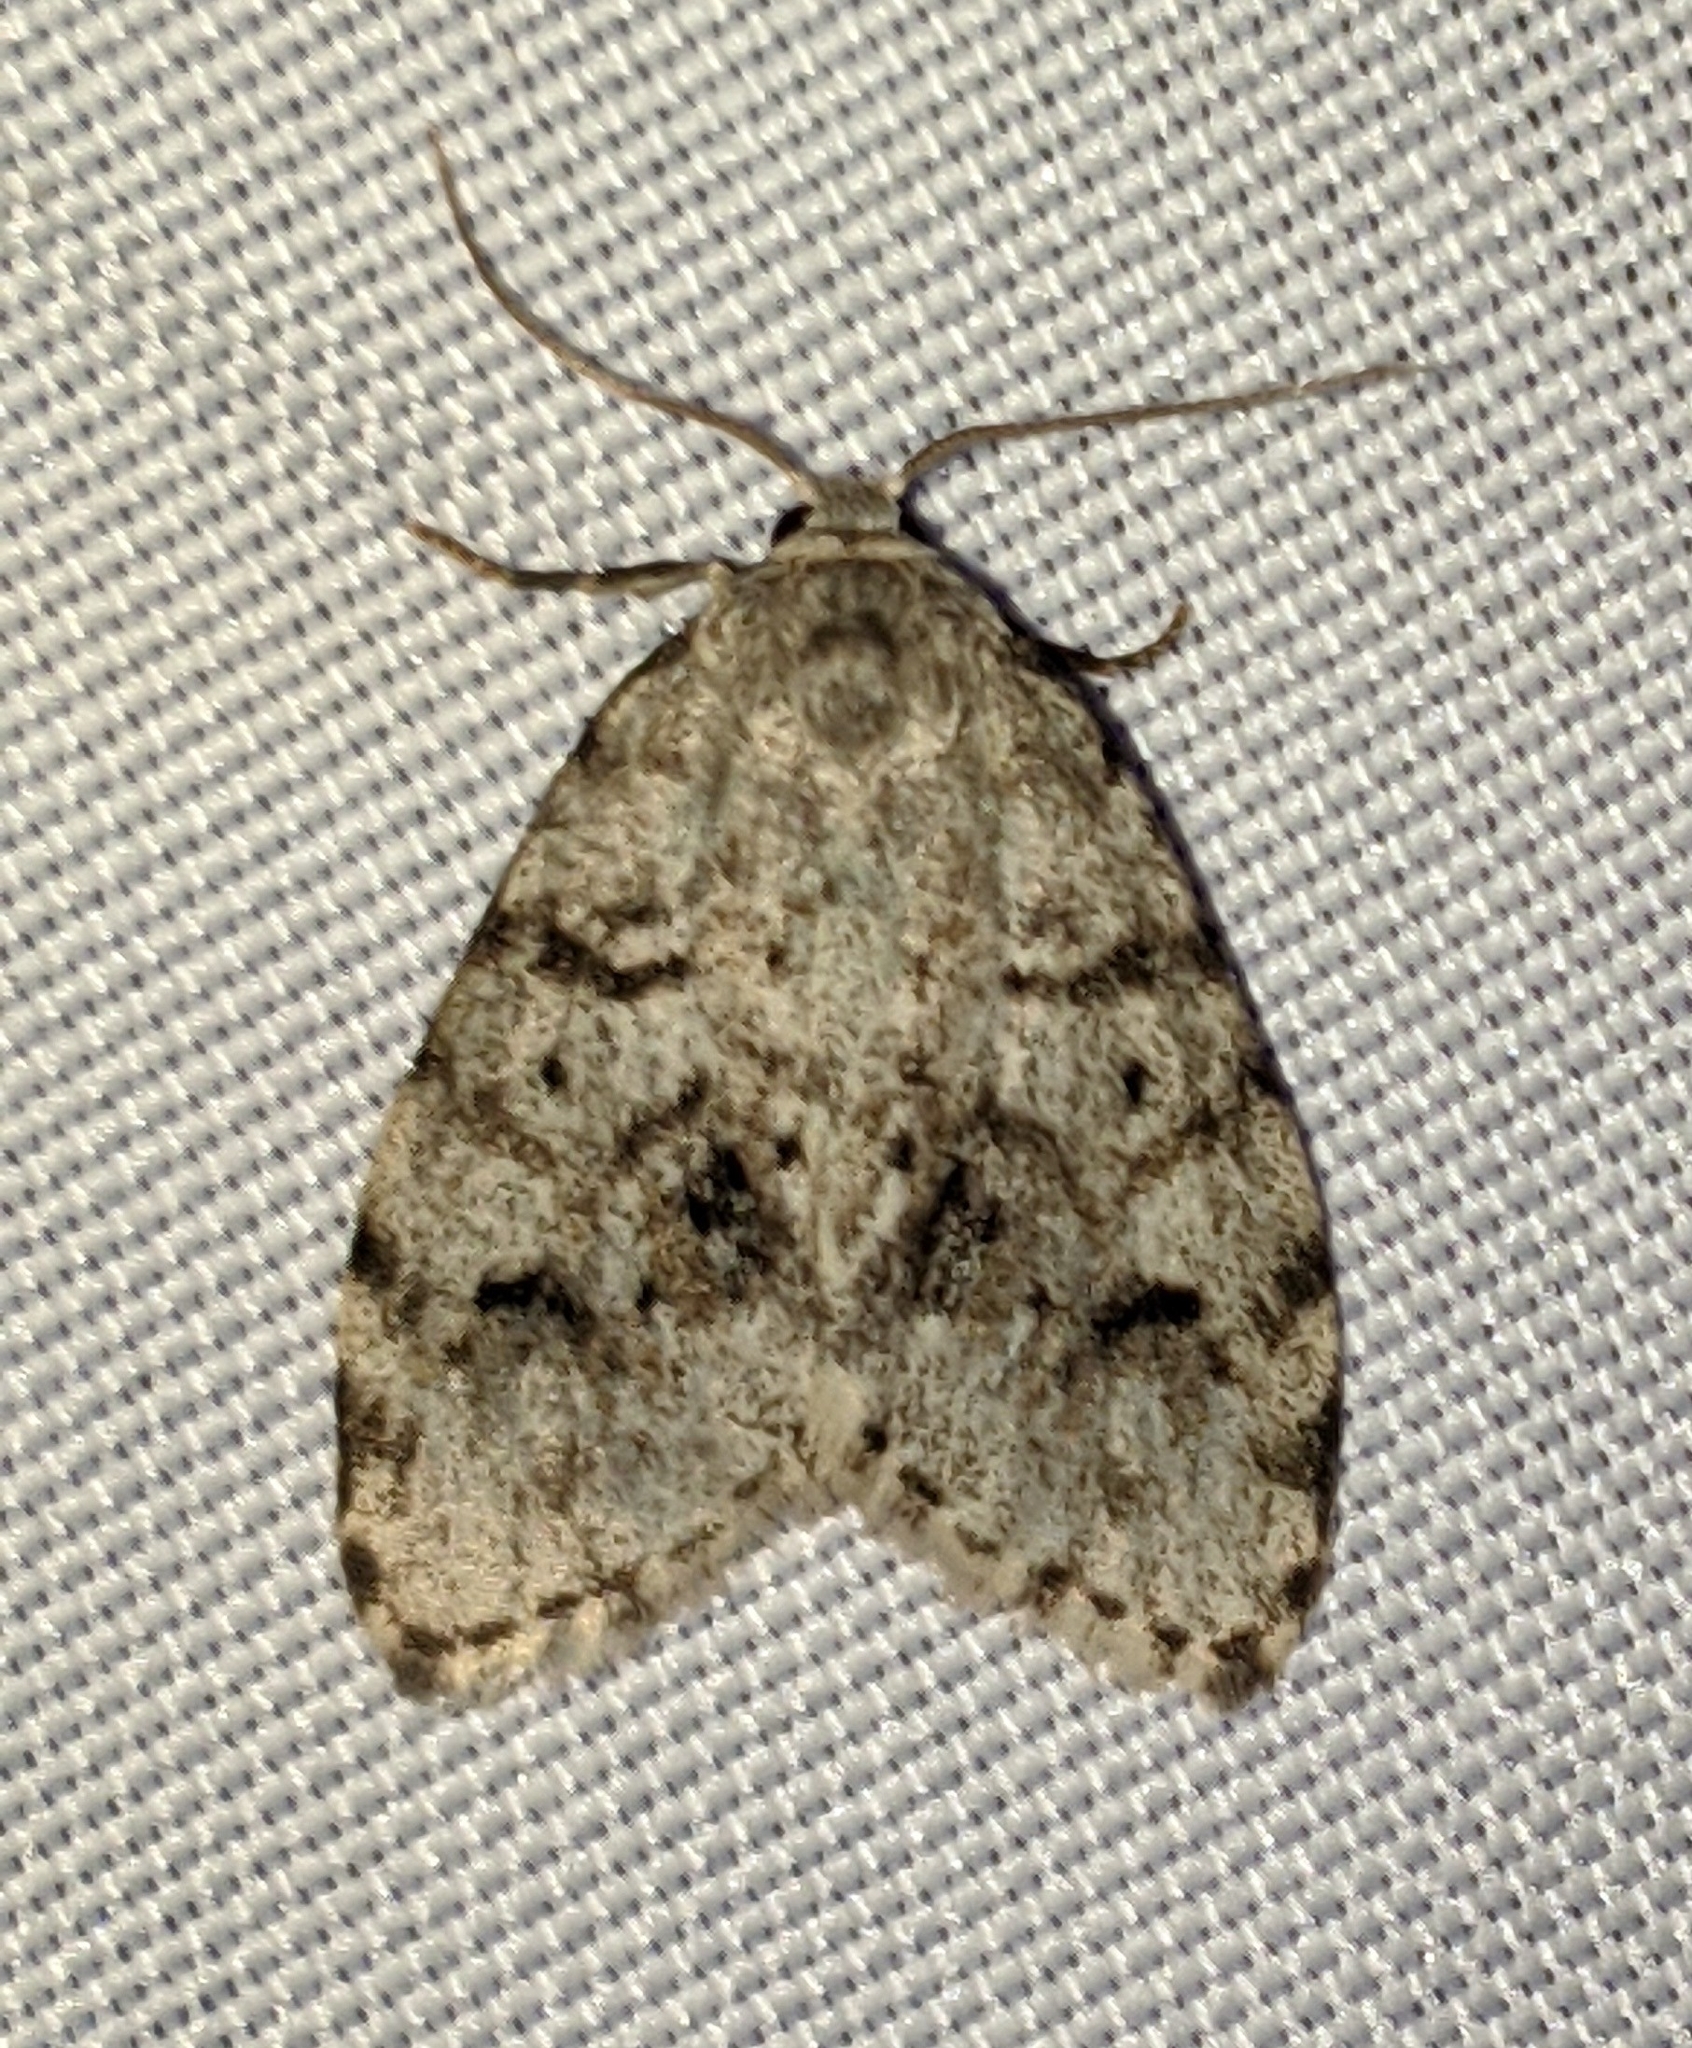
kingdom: Animalia
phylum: Arthropoda
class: Insecta
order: Lepidoptera
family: Erebidae
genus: Clemensia
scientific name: Clemensia umbrata
